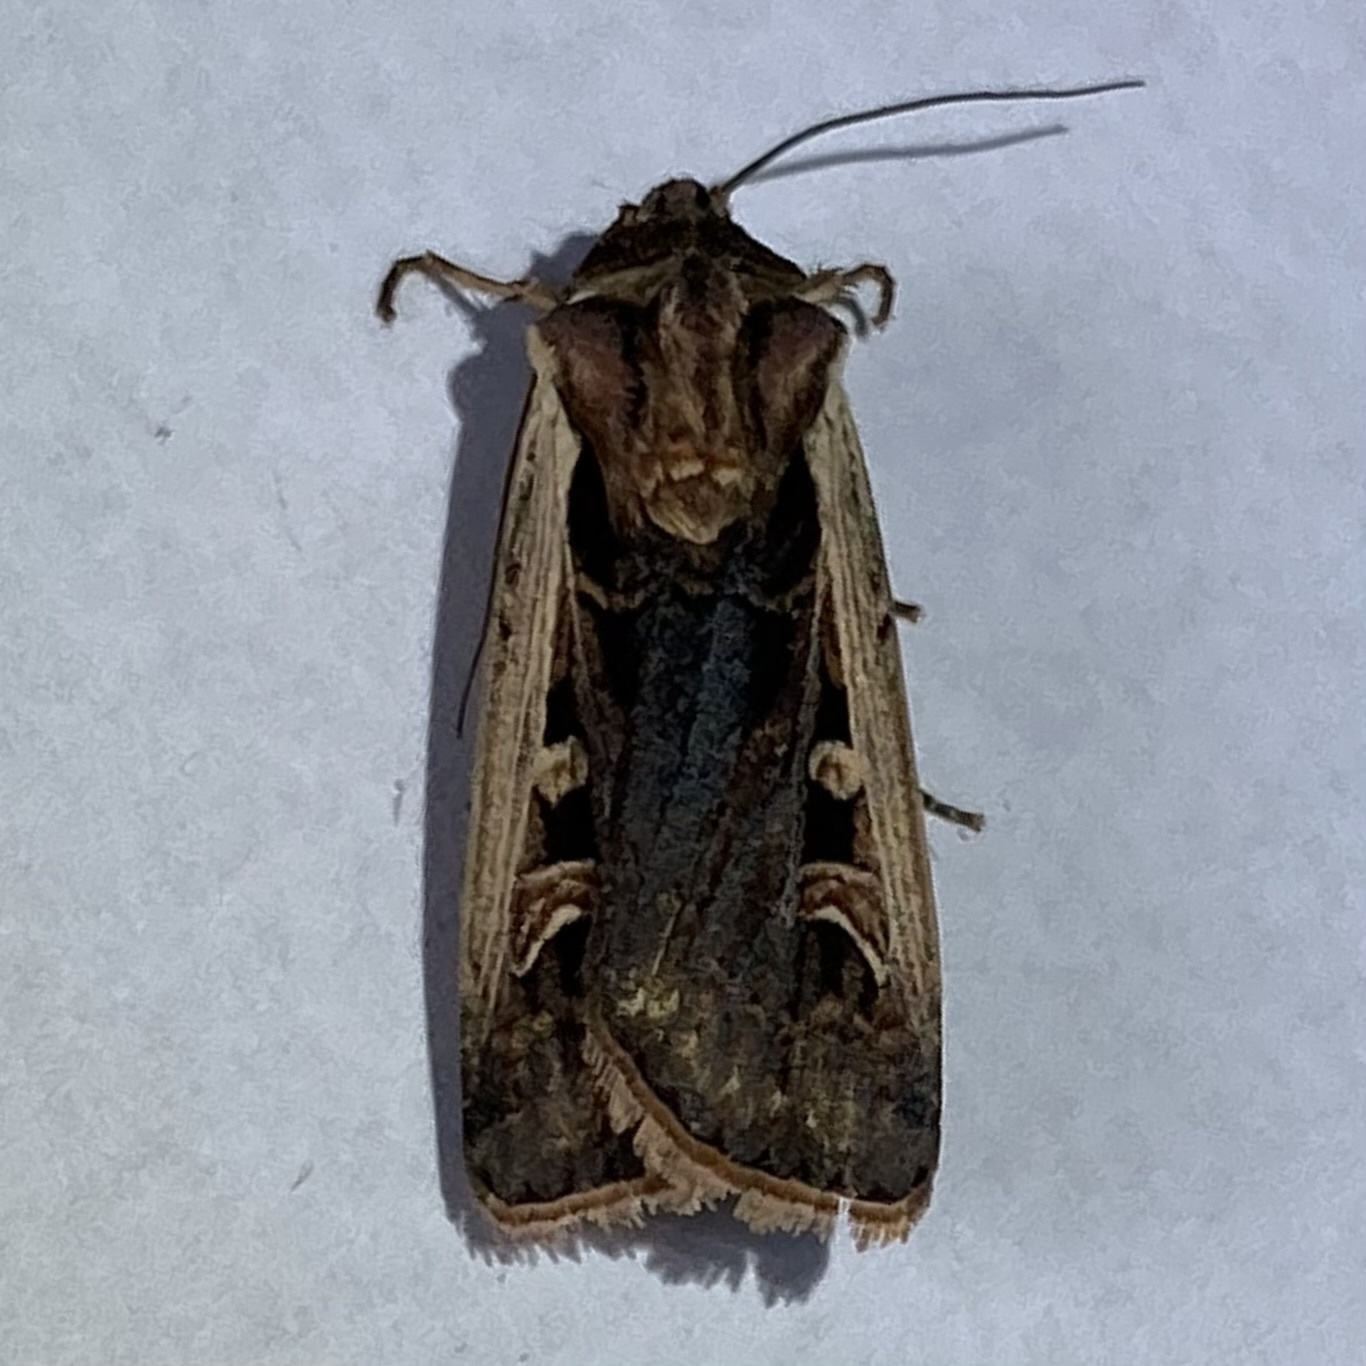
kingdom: Animalia
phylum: Arthropoda
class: Insecta
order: Lepidoptera
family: Noctuidae
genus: Striacosta
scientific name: Striacosta albicosta
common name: Western bean cutworm moth
